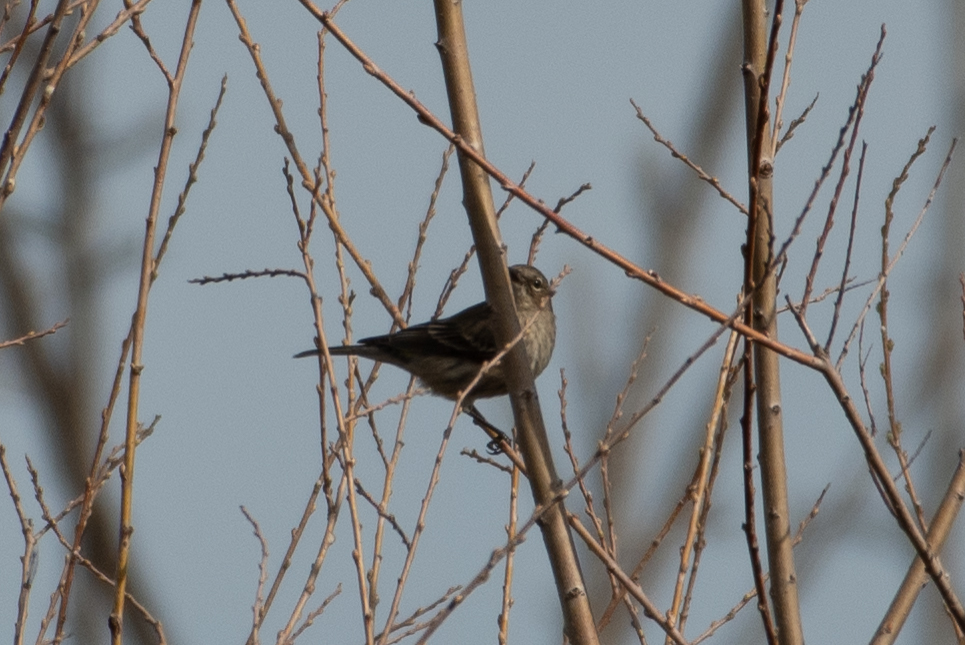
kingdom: Animalia
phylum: Chordata
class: Aves
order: Passeriformes
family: Parulidae
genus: Setophaga
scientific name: Setophaga coronata
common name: Myrtle warbler
